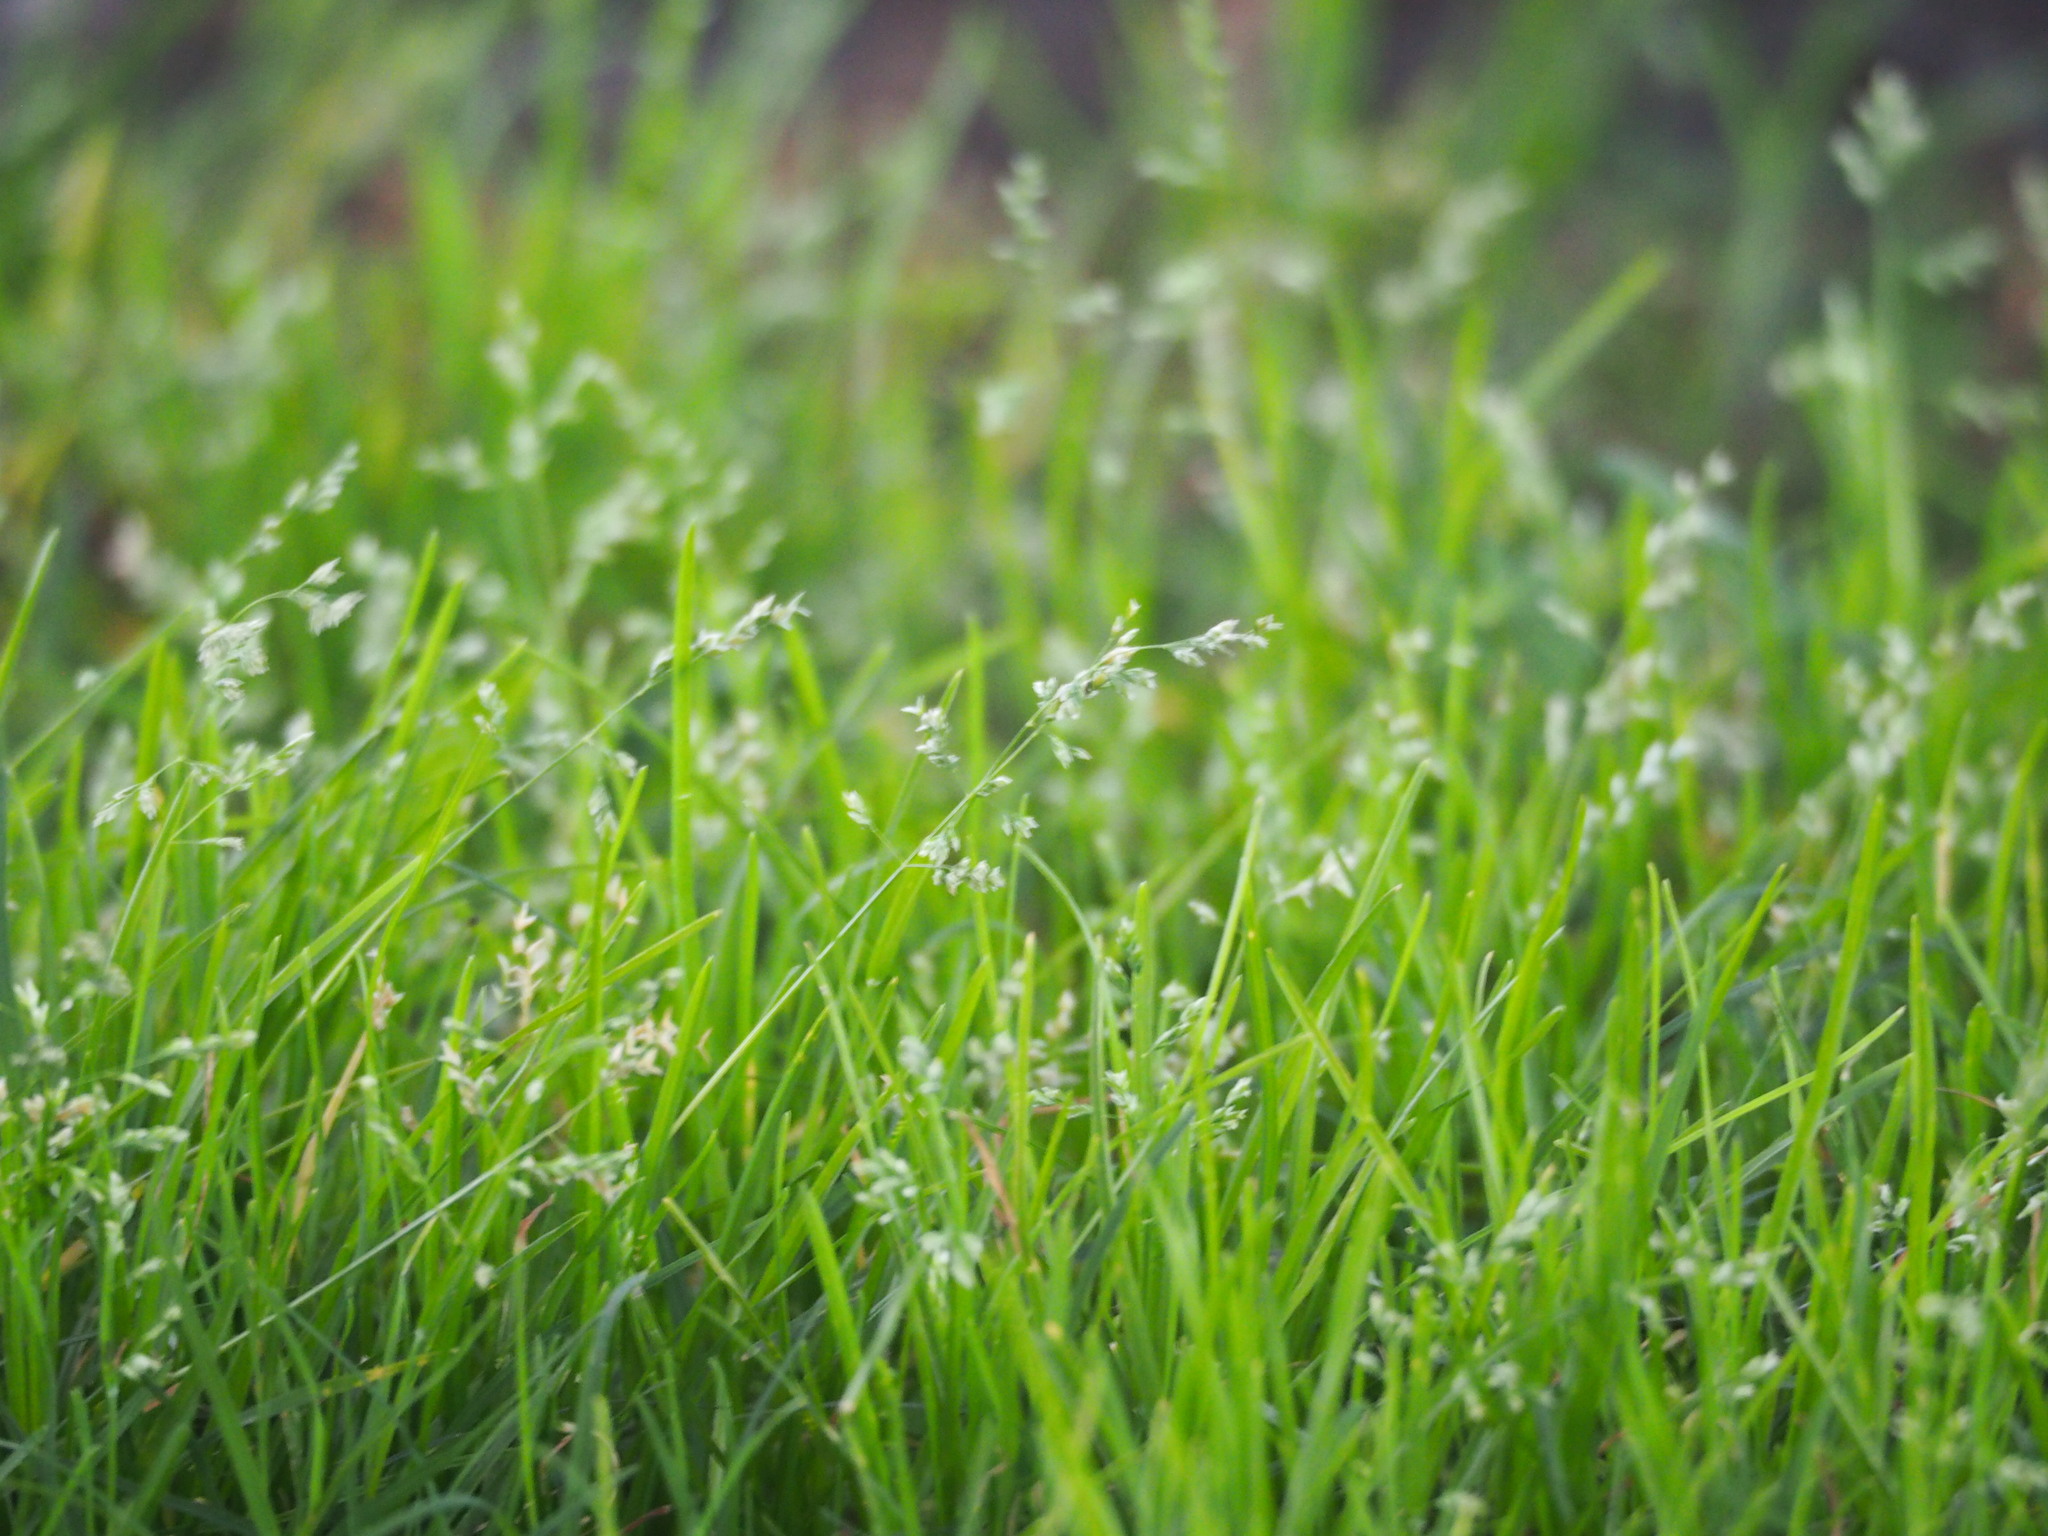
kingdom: Plantae
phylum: Tracheophyta
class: Liliopsida
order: Poales
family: Poaceae
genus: Poa
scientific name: Poa annua
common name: Annual bluegrass
